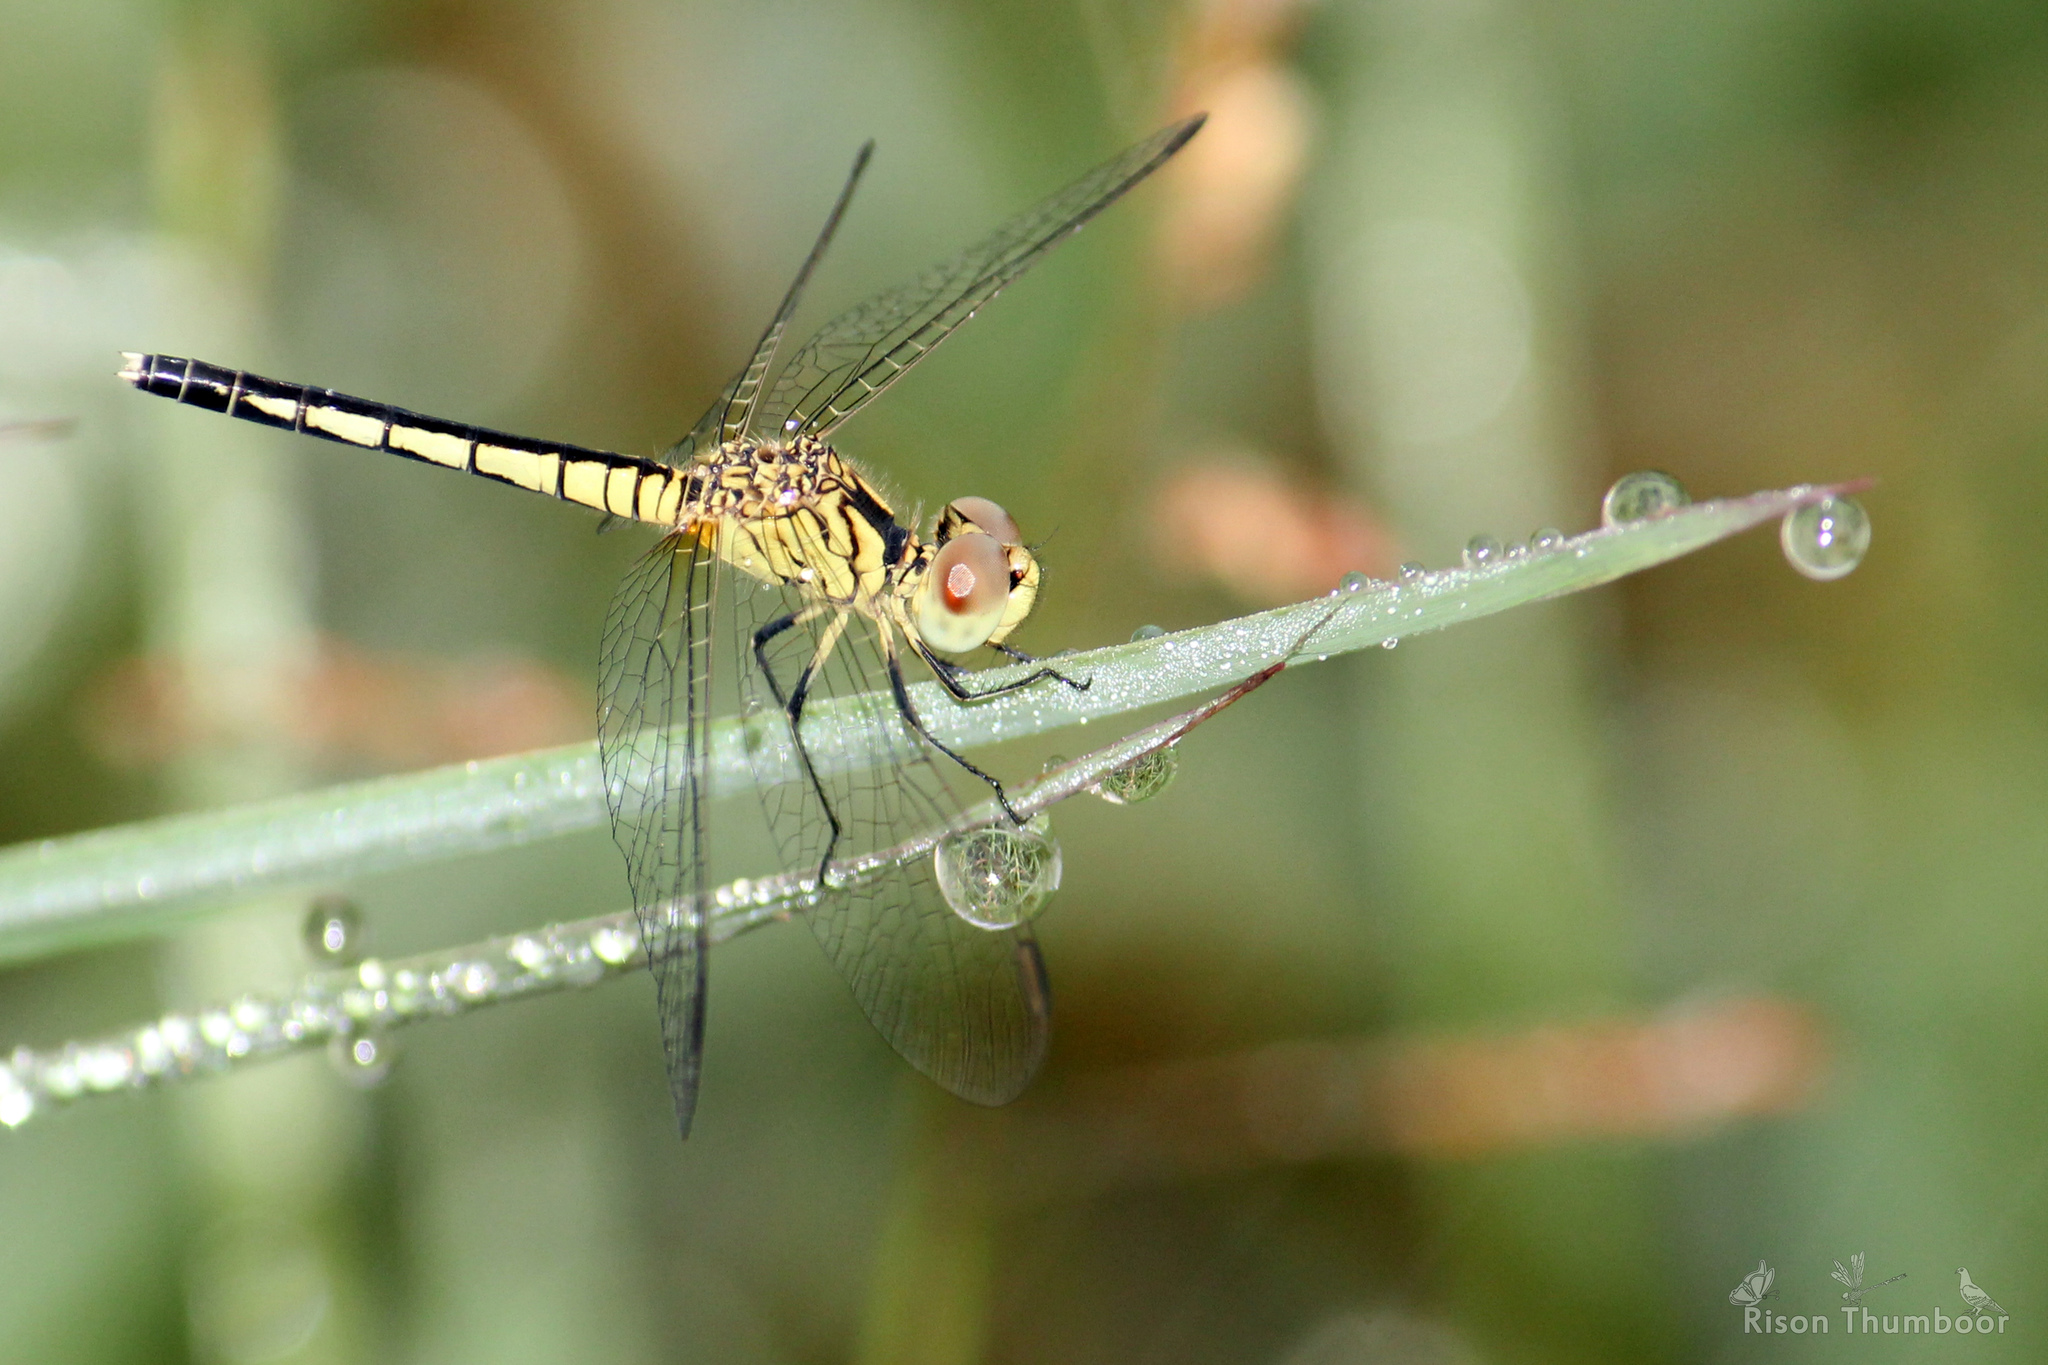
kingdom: Animalia
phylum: Arthropoda
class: Insecta
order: Odonata
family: Libellulidae
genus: Diplacodes
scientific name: Diplacodes nebulosa
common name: Black-tipped percher
